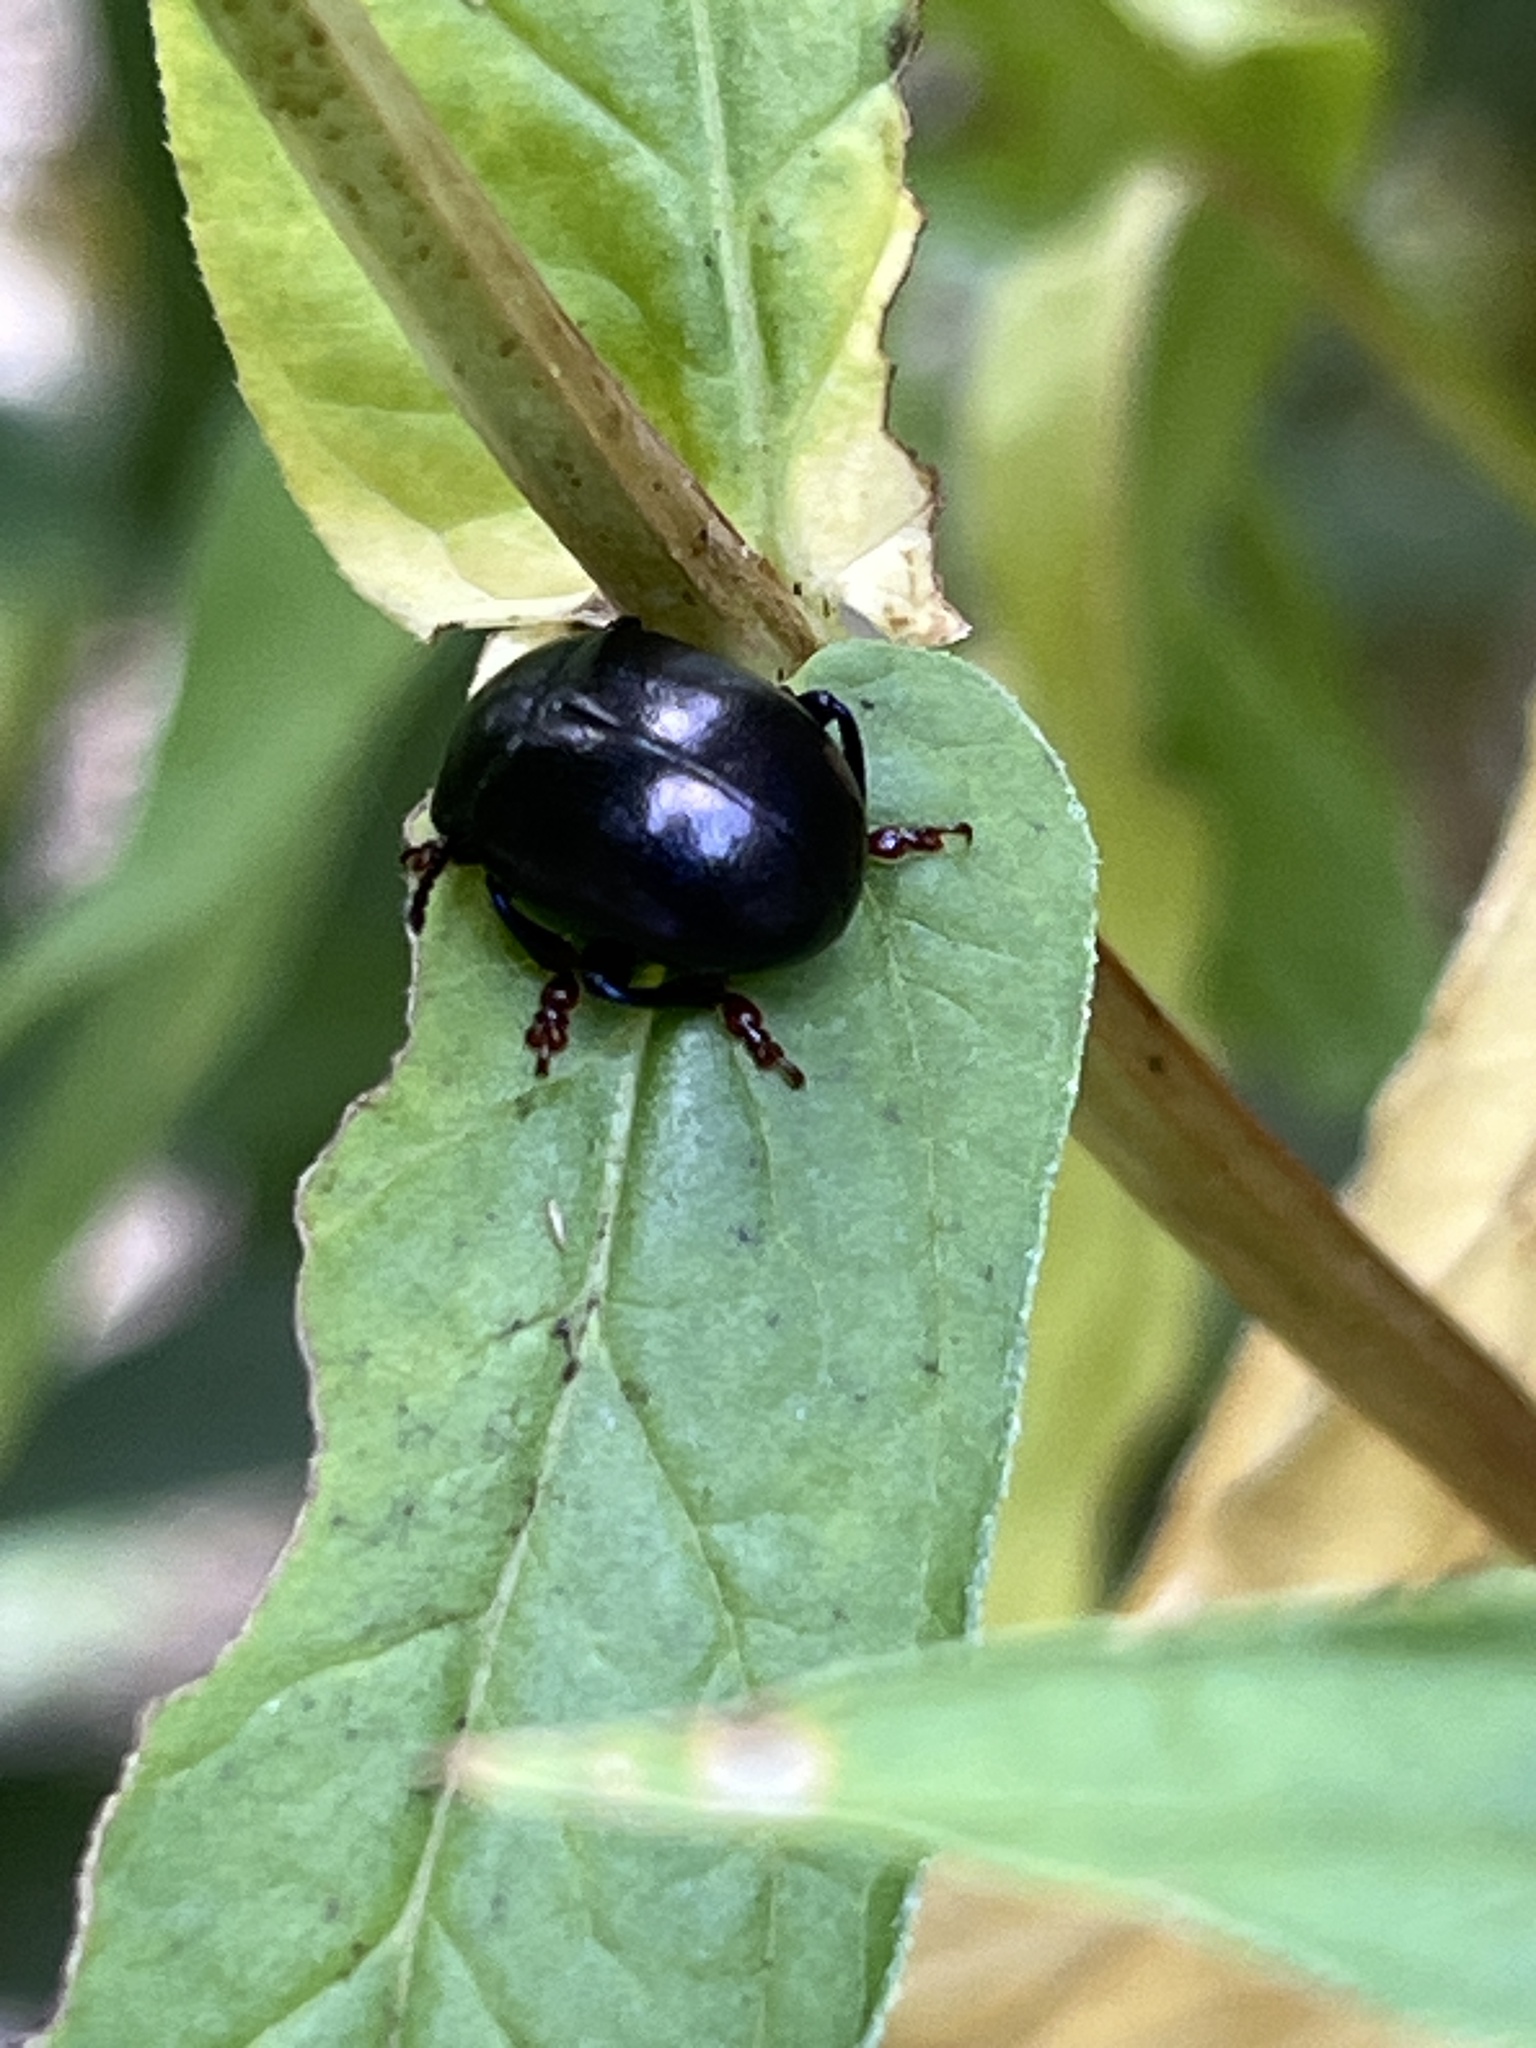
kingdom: Animalia
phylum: Arthropoda
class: Insecta
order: Coleoptera
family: Chrysomelidae
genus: Chrysolina
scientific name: Chrysolina sturmi
